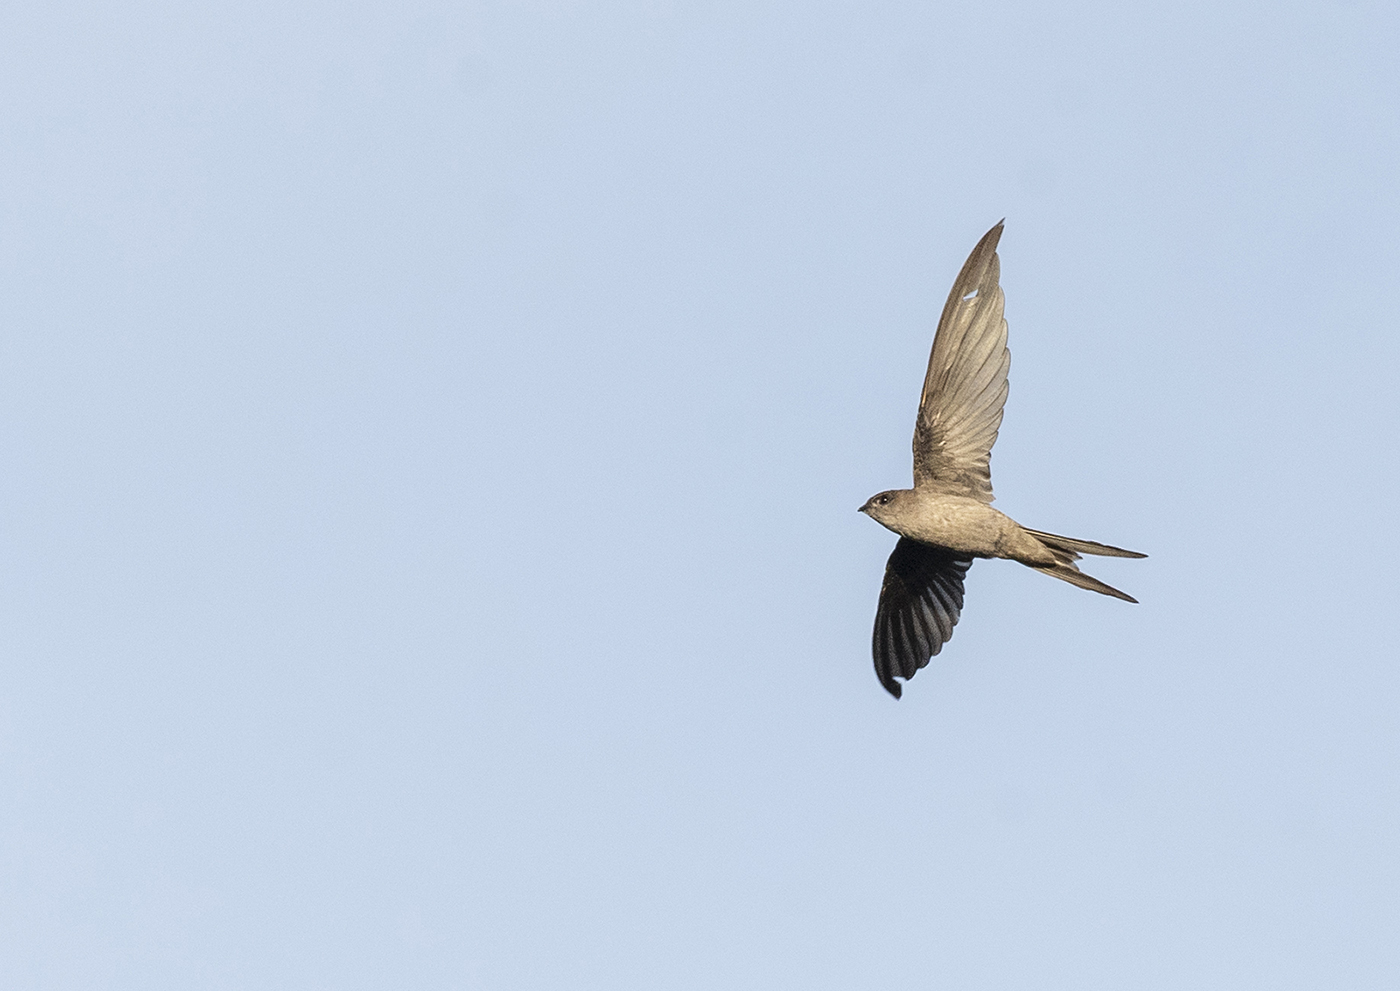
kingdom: Animalia
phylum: Chordata
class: Aves
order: Apodiformes
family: Apodidae
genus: Cypsiurus
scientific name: Cypsiurus balasiensis
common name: Asian palm swift
